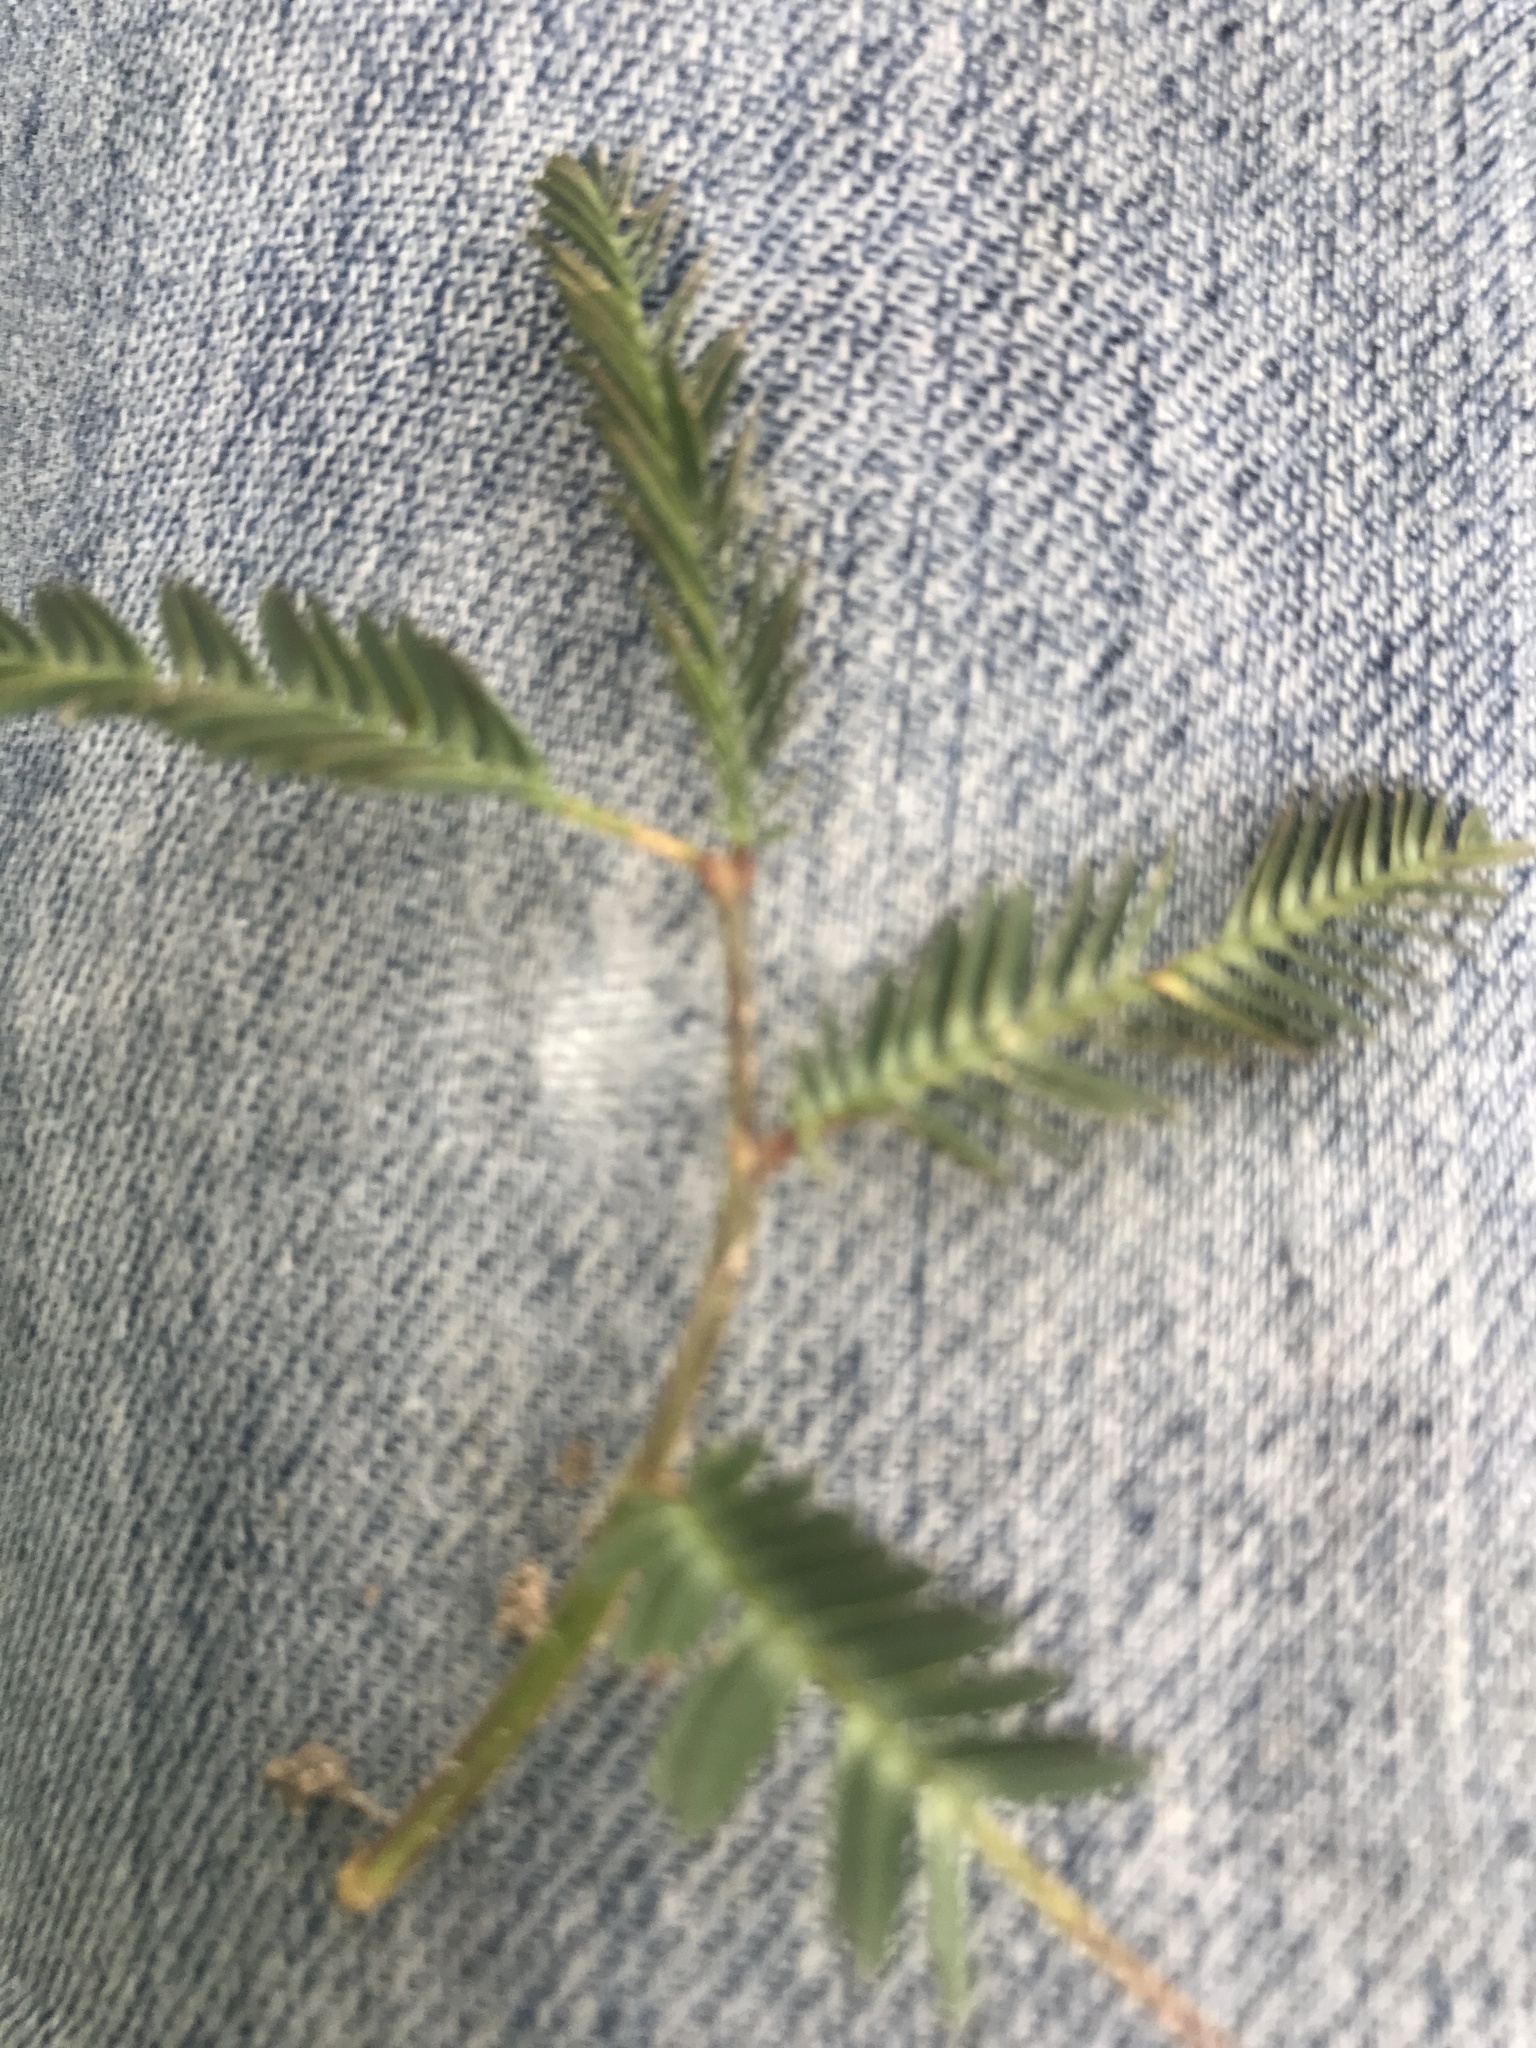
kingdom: Plantae
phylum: Tracheophyta
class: Magnoliopsida
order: Fabales
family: Fabaceae
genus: Neptunia
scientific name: Neptunia pubescens
